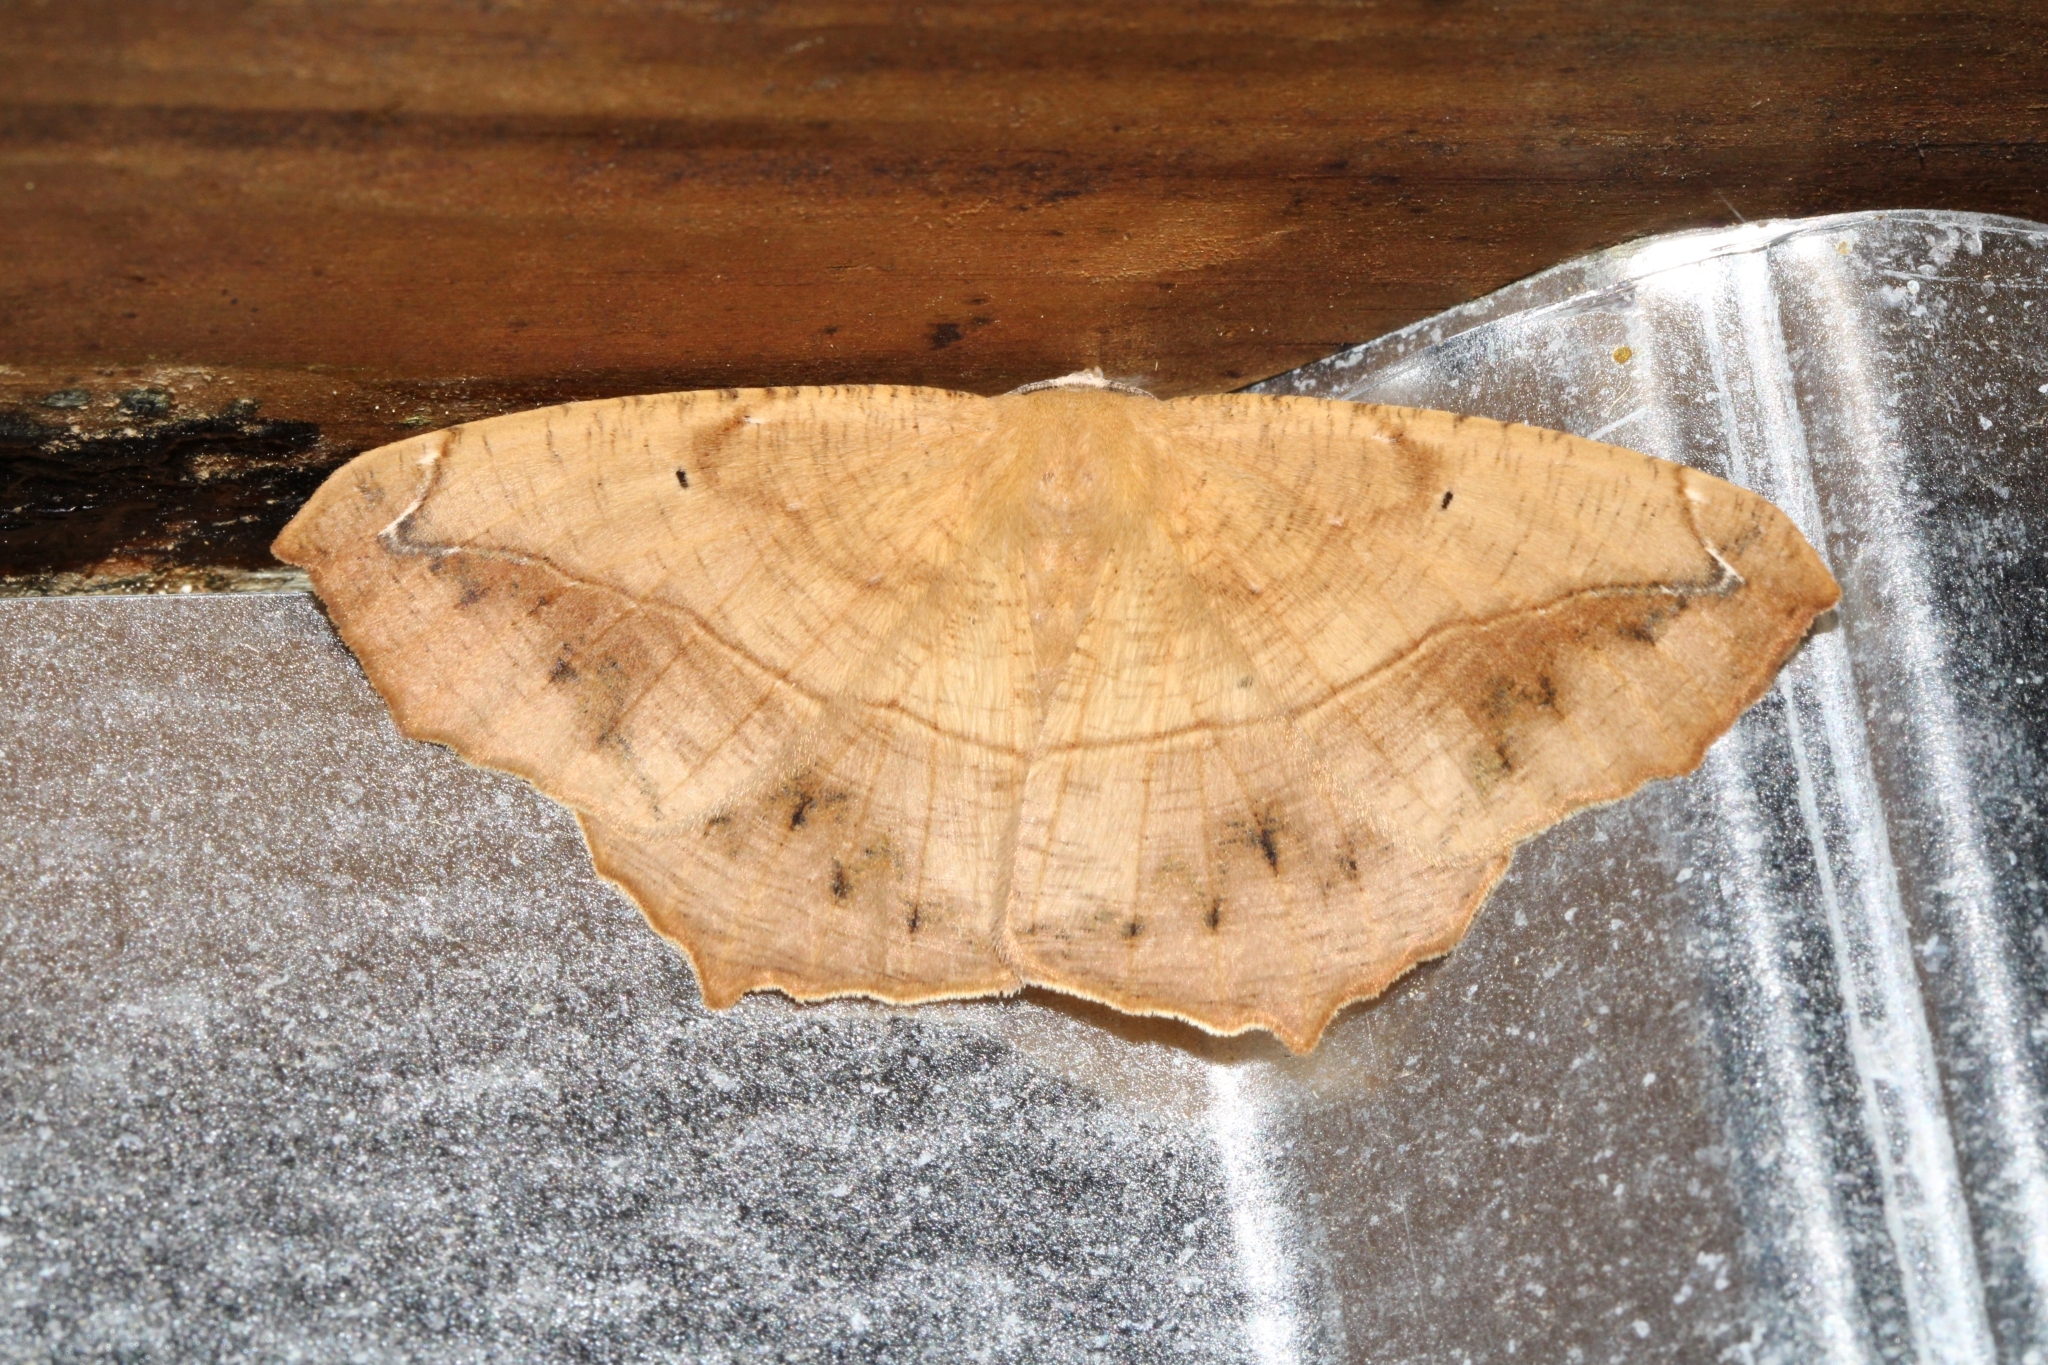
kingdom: Animalia
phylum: Arthropoda
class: Insecta
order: Lepidoptera
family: Geometridae
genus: Prochoerodes
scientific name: Prochoerodes lineola
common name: Large maple spanworm
